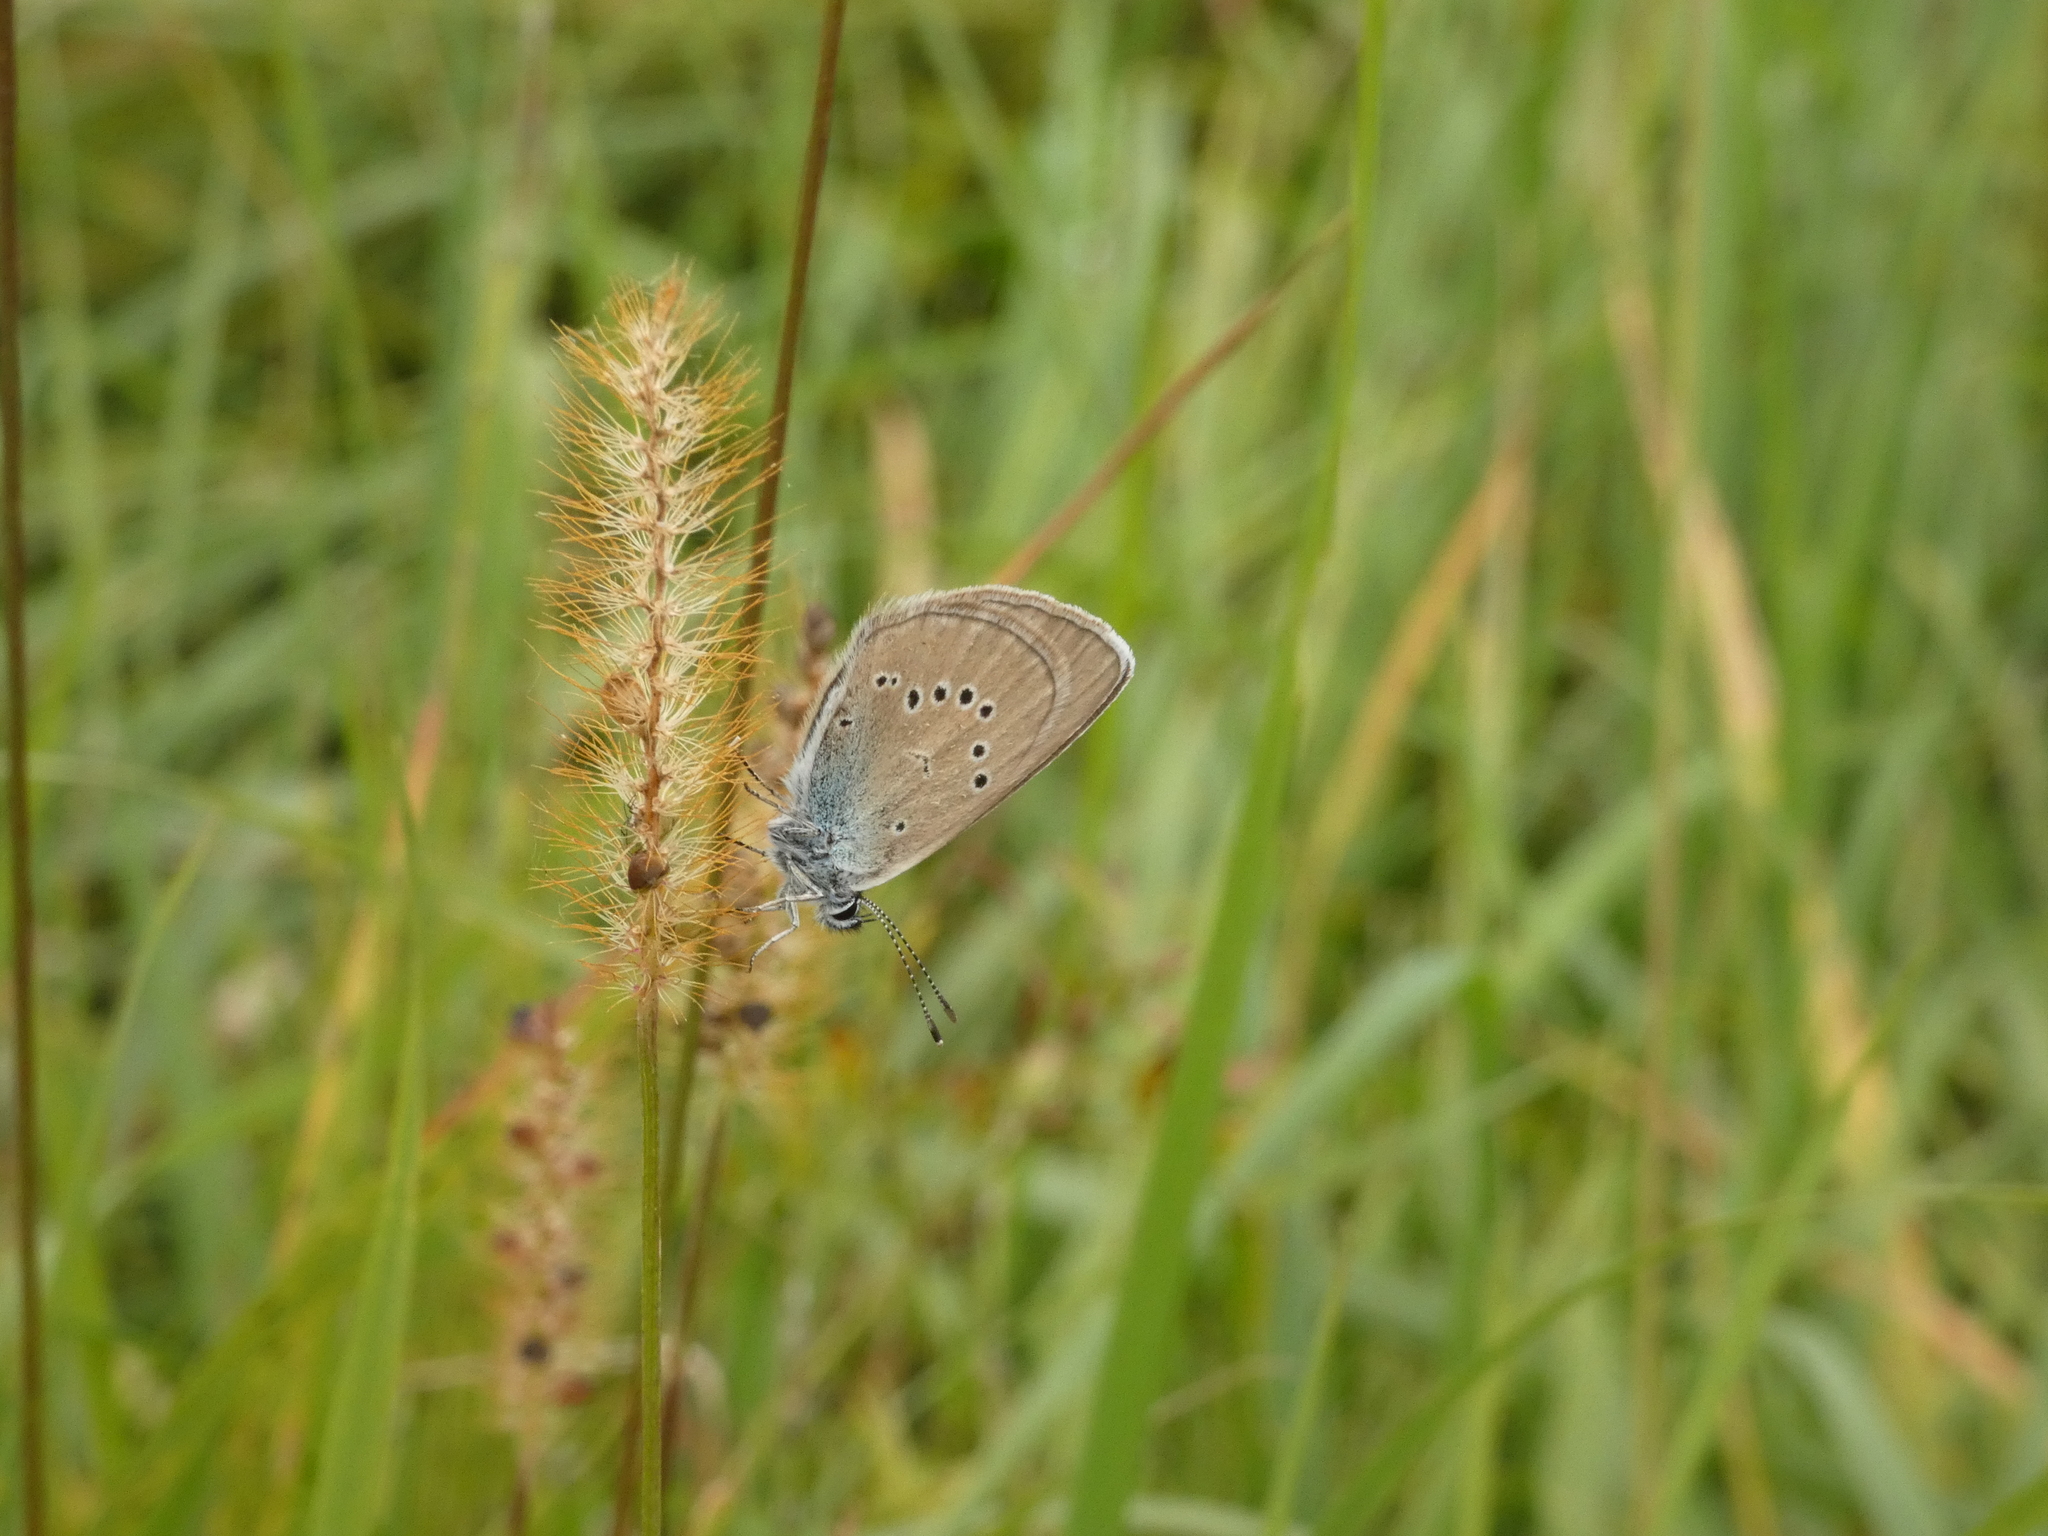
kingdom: Animalia
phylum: Arthropoda
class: Insecta
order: Lepidoptera
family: Lycaenidae
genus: Cyaniris
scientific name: Cyaniris semiargus
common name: Mazarine blue
